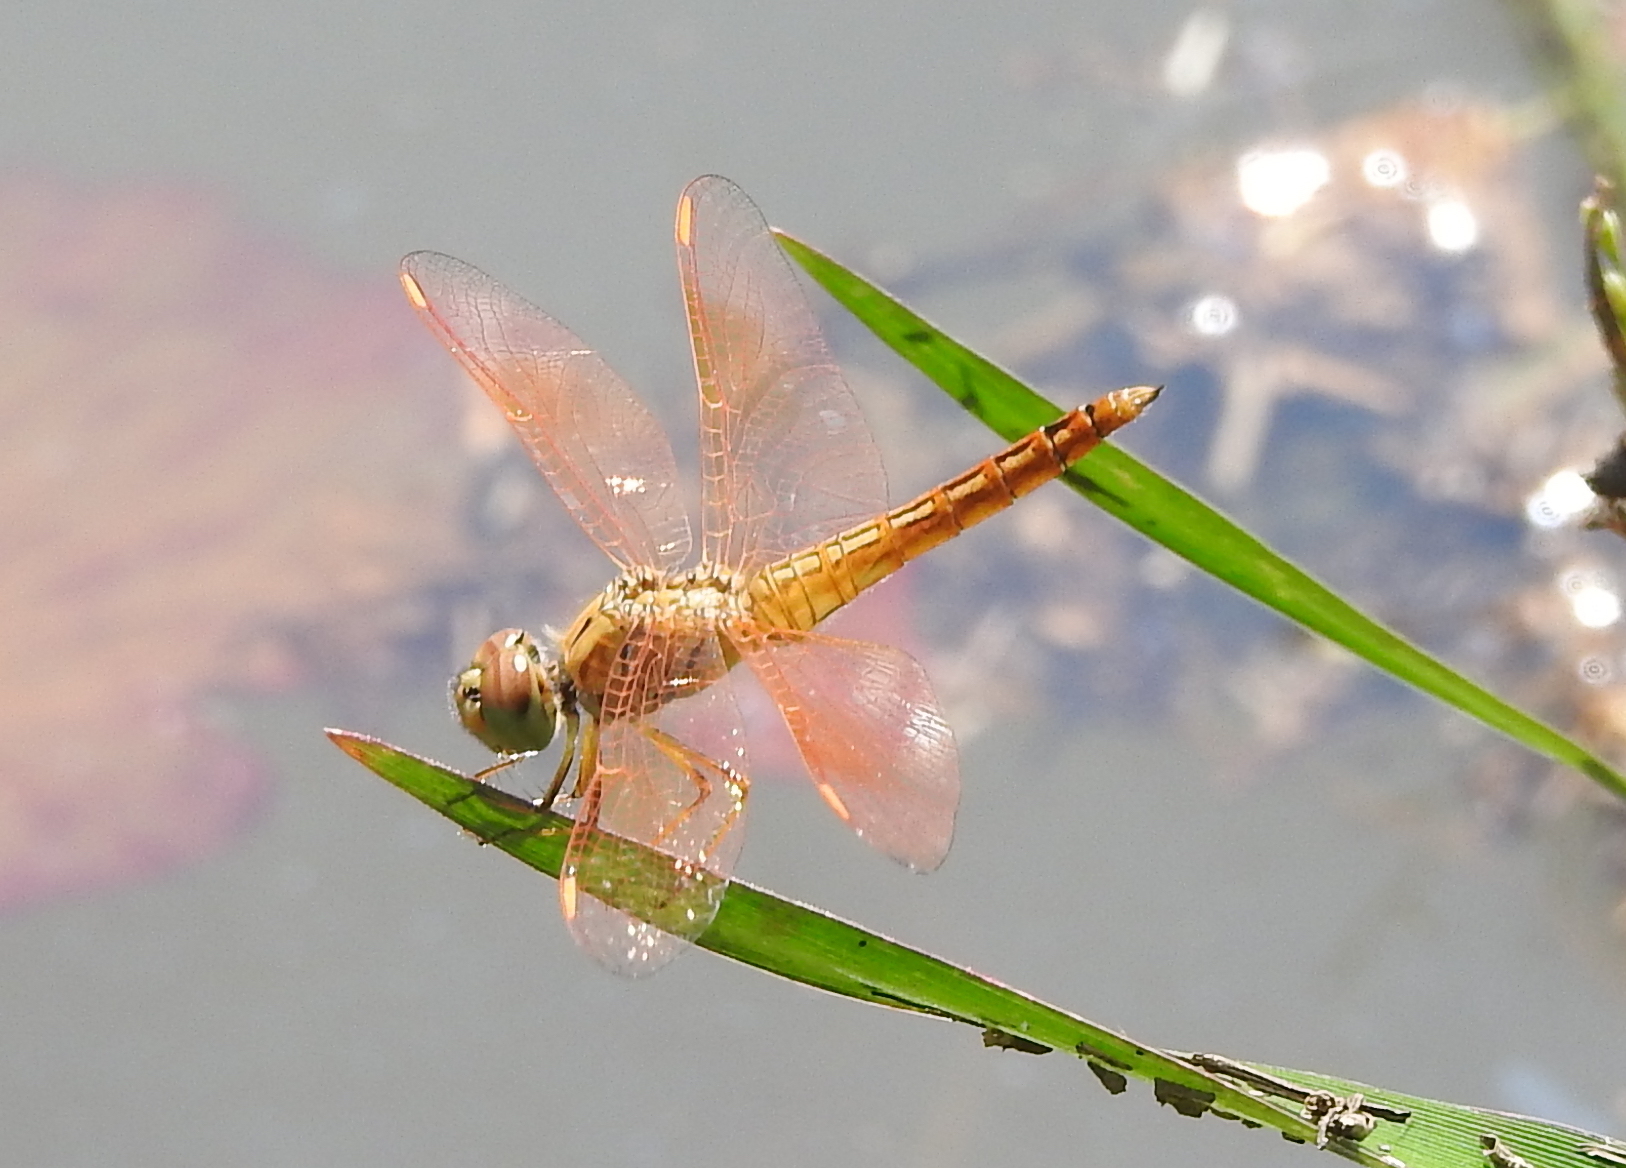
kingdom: Animalia
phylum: Arthropoda
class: Insecta
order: Odonata
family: Libellulidae
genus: Brachythemis
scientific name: Brachythemis contaminata
